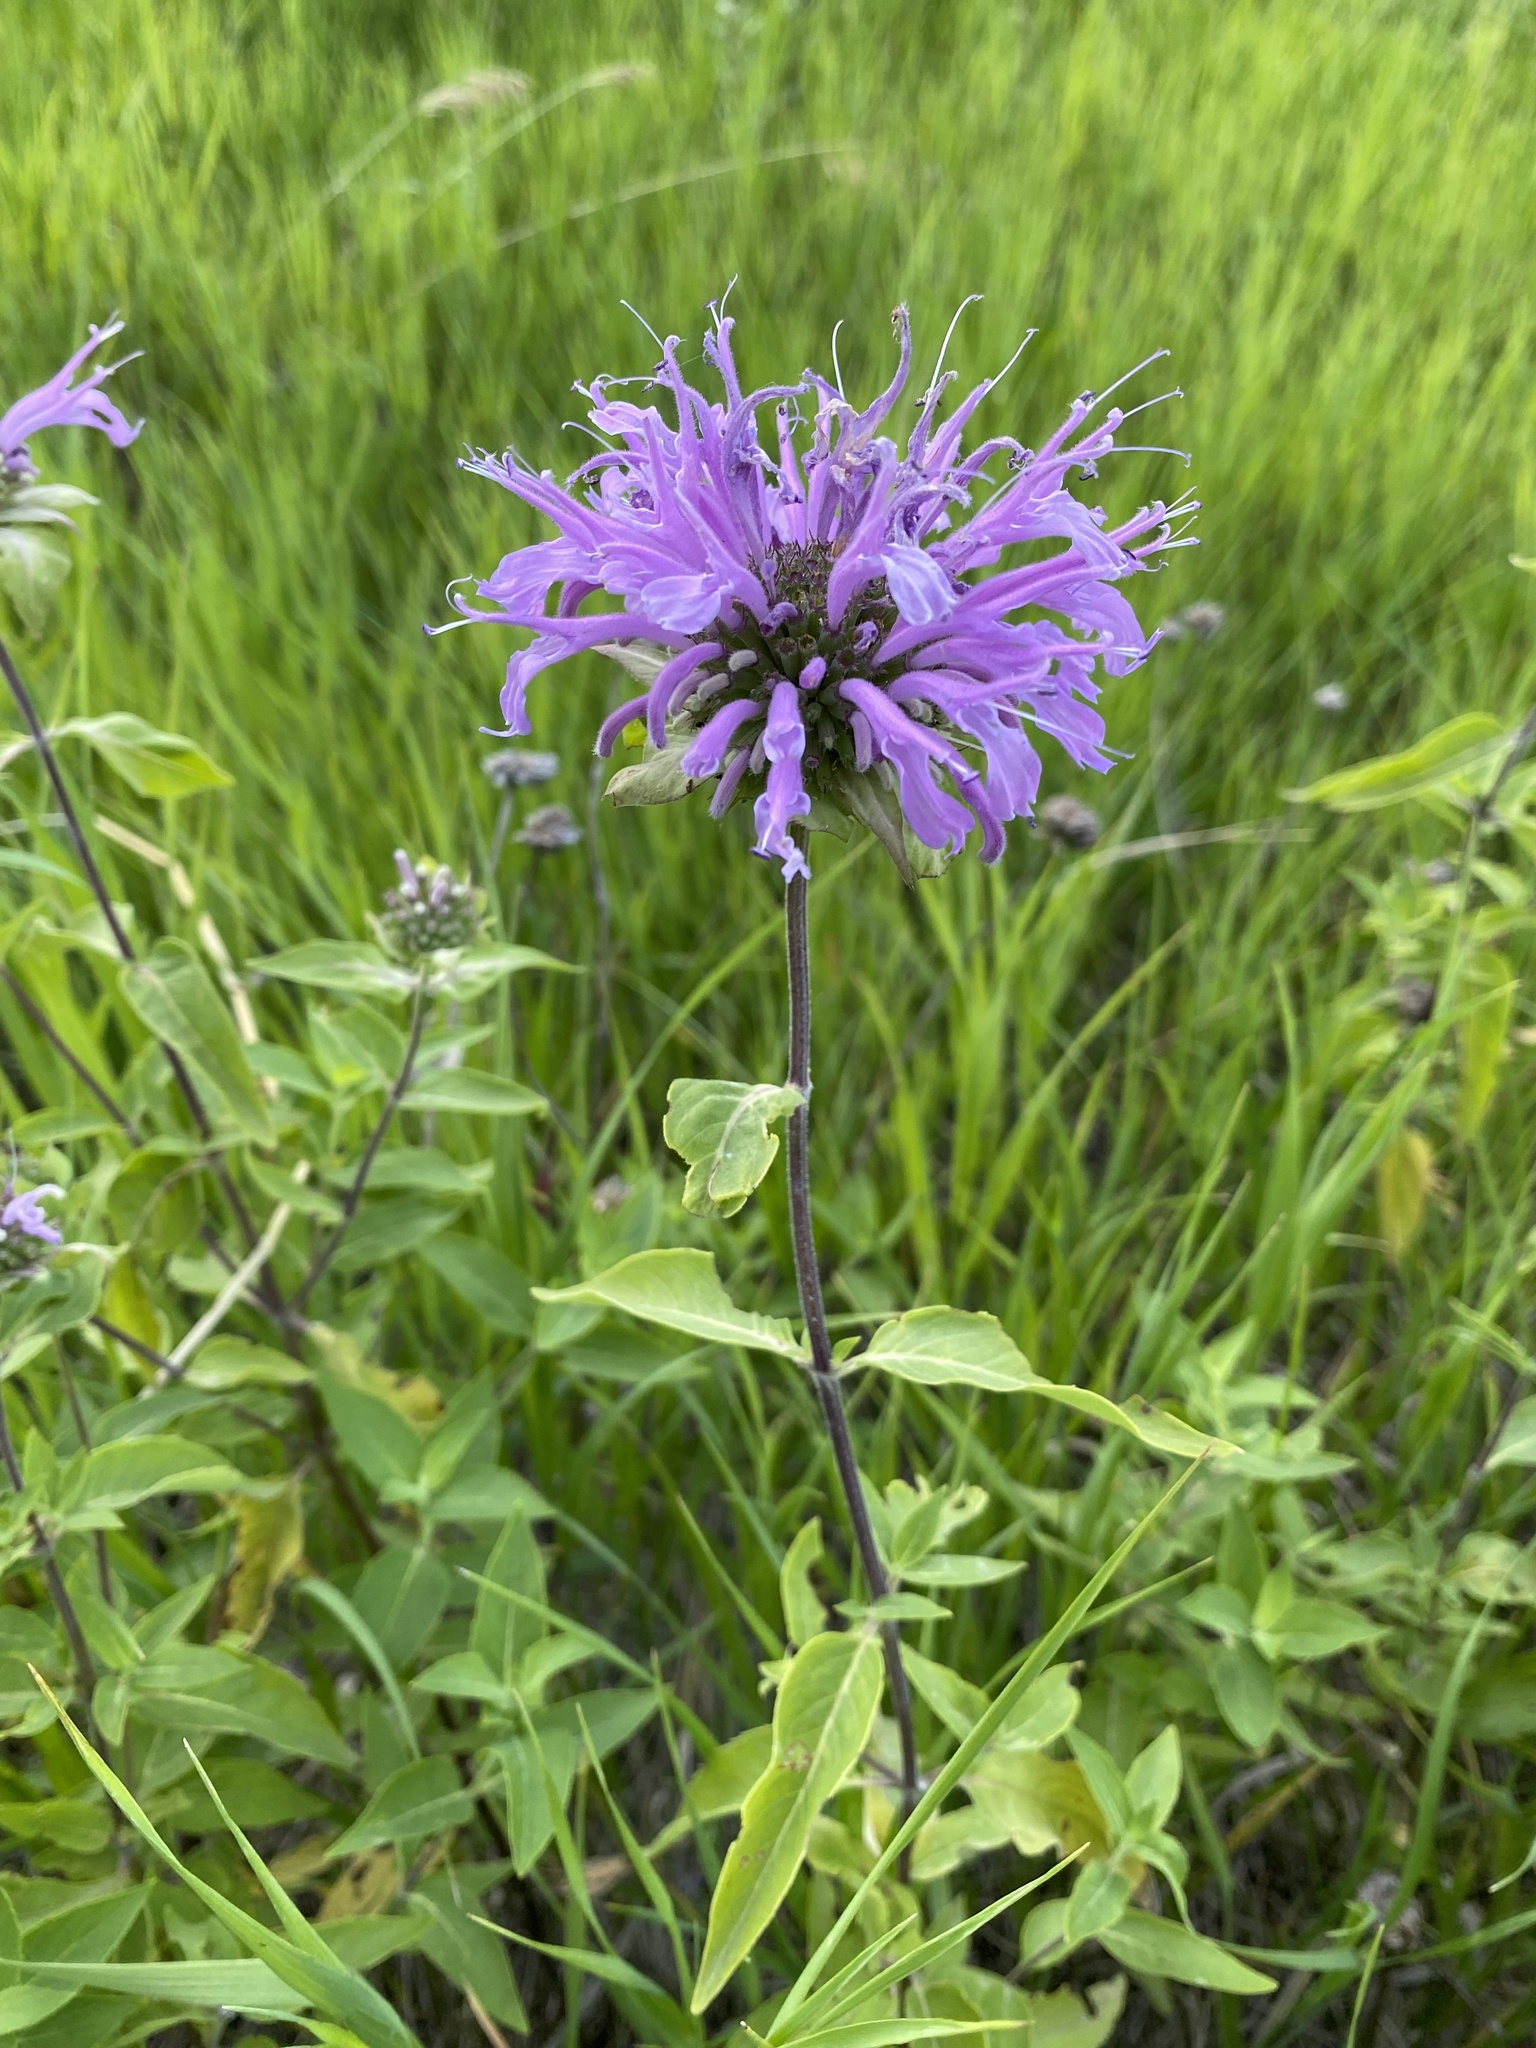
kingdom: Plantae
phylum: Tracheophyta
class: Magnoliopsida
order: Lamiales
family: Lamiaceae
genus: Monarda
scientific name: Monarda fistulosa
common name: Purple beebalm
